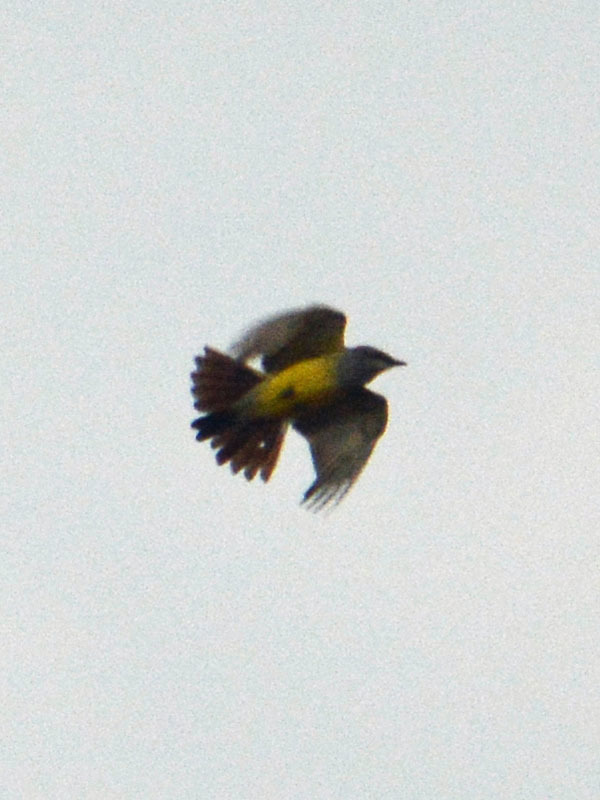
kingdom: Animalia
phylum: Chordata
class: Aves
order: Passeriformes
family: Tyrannidae
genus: Tyrannus
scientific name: Tyrannus vociferans
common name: Cassin's kingbird
